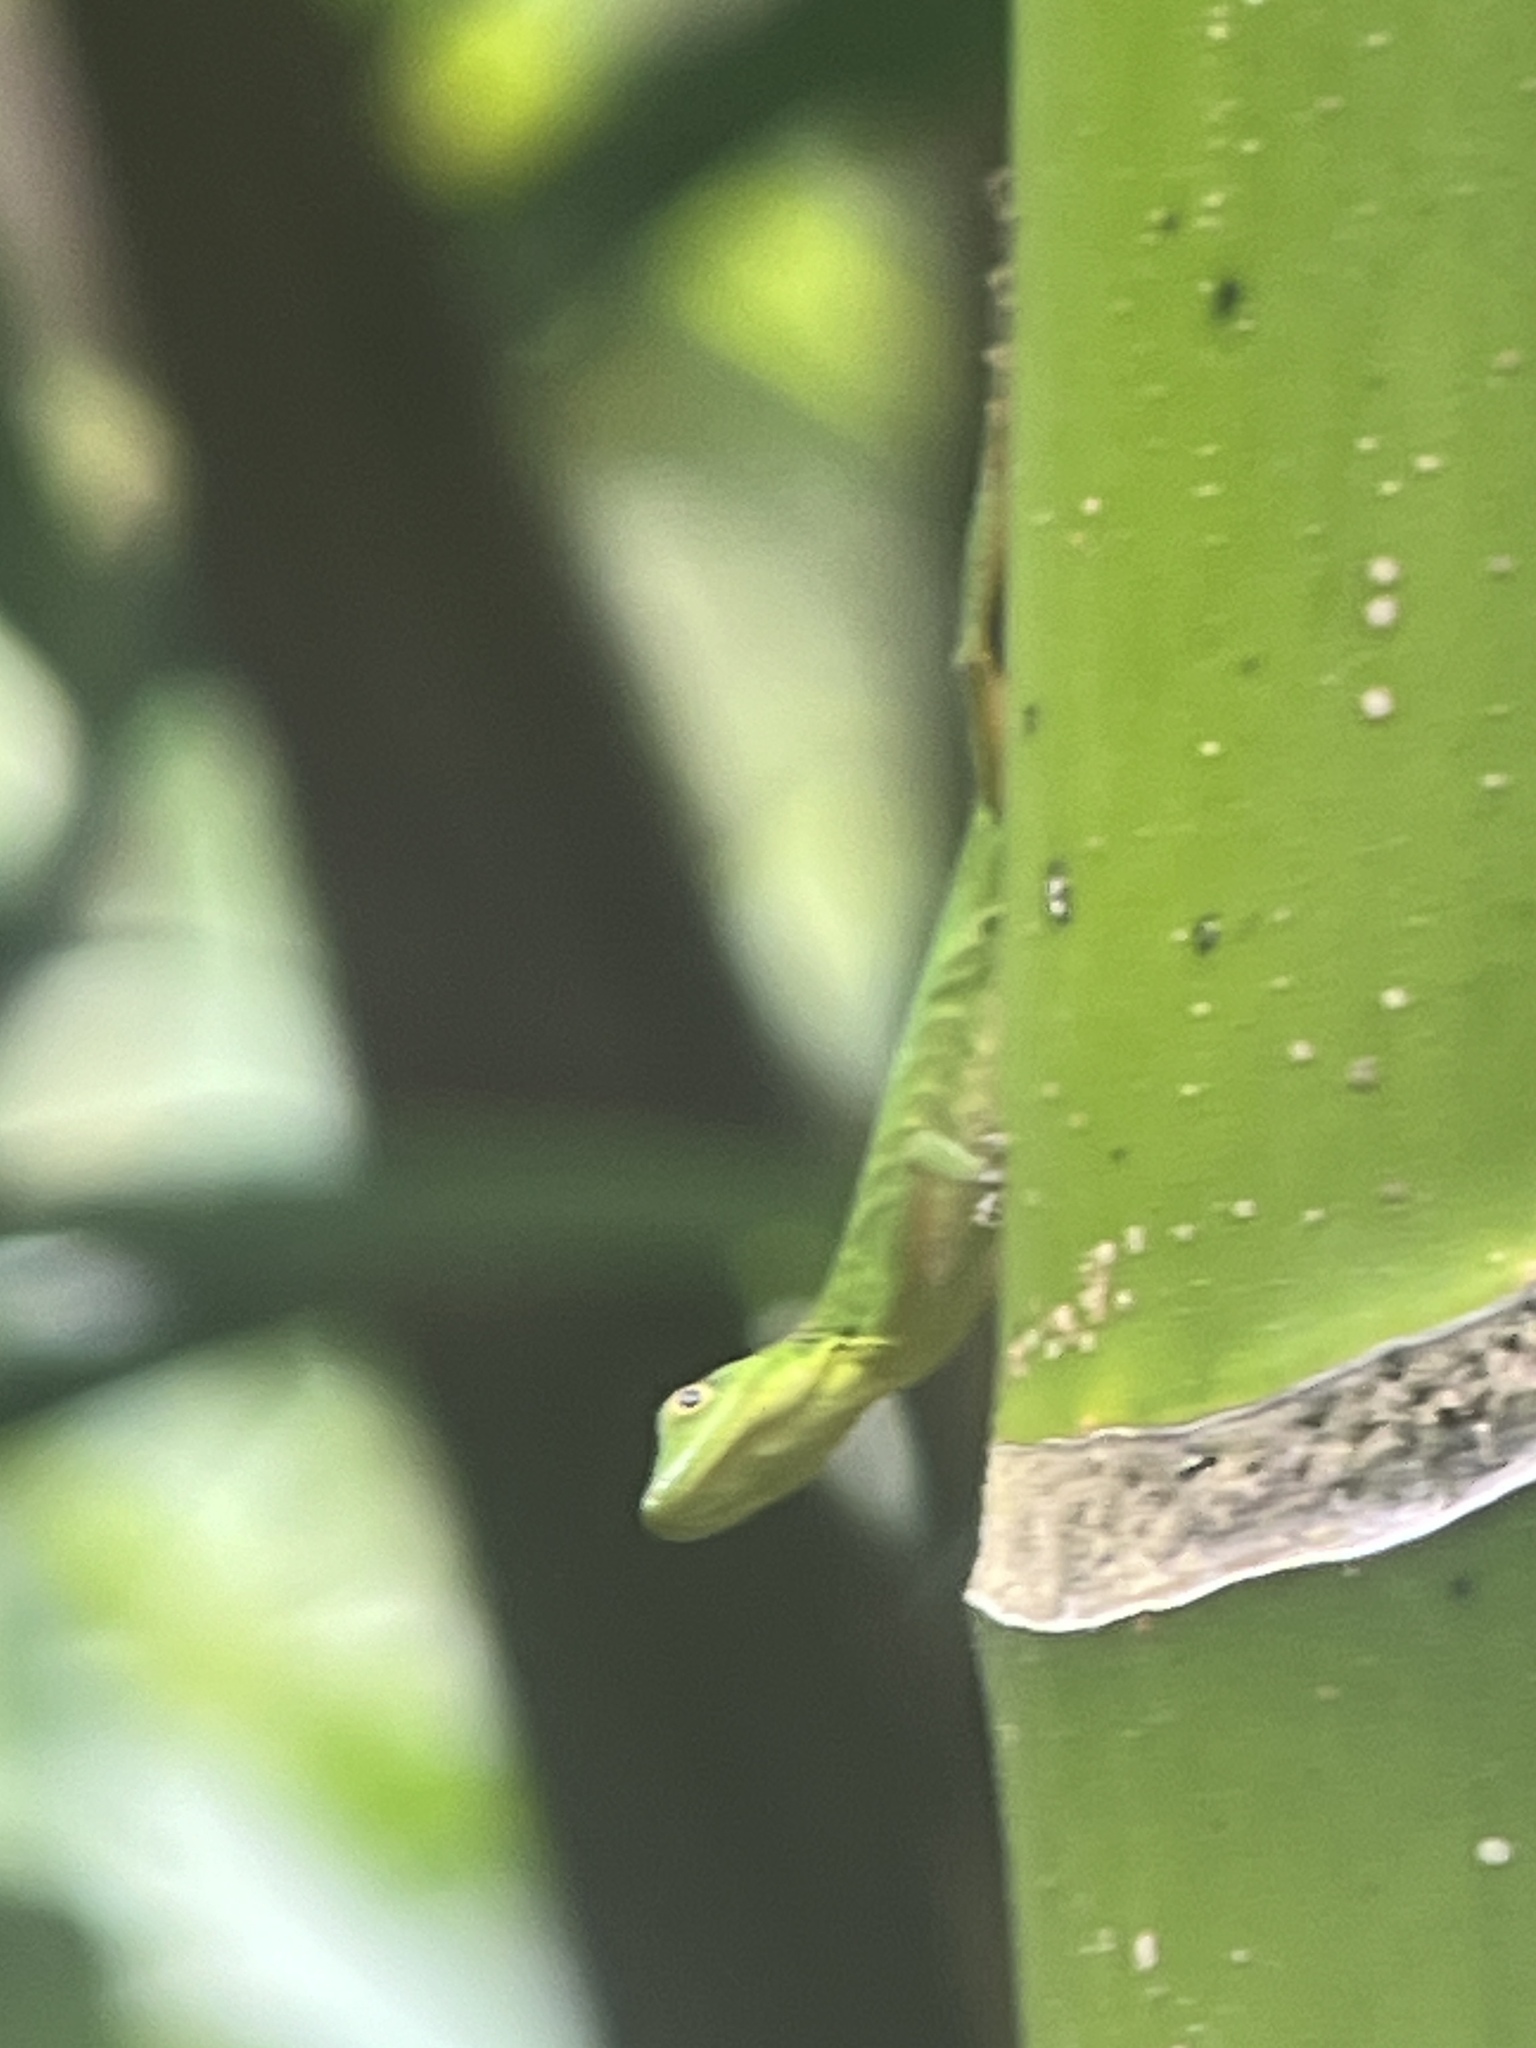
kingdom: Animalia
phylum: Chordata
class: Squamata
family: Dactyloidae
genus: Anolis
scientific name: Anolis chloris
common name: Boulenger's green anole
